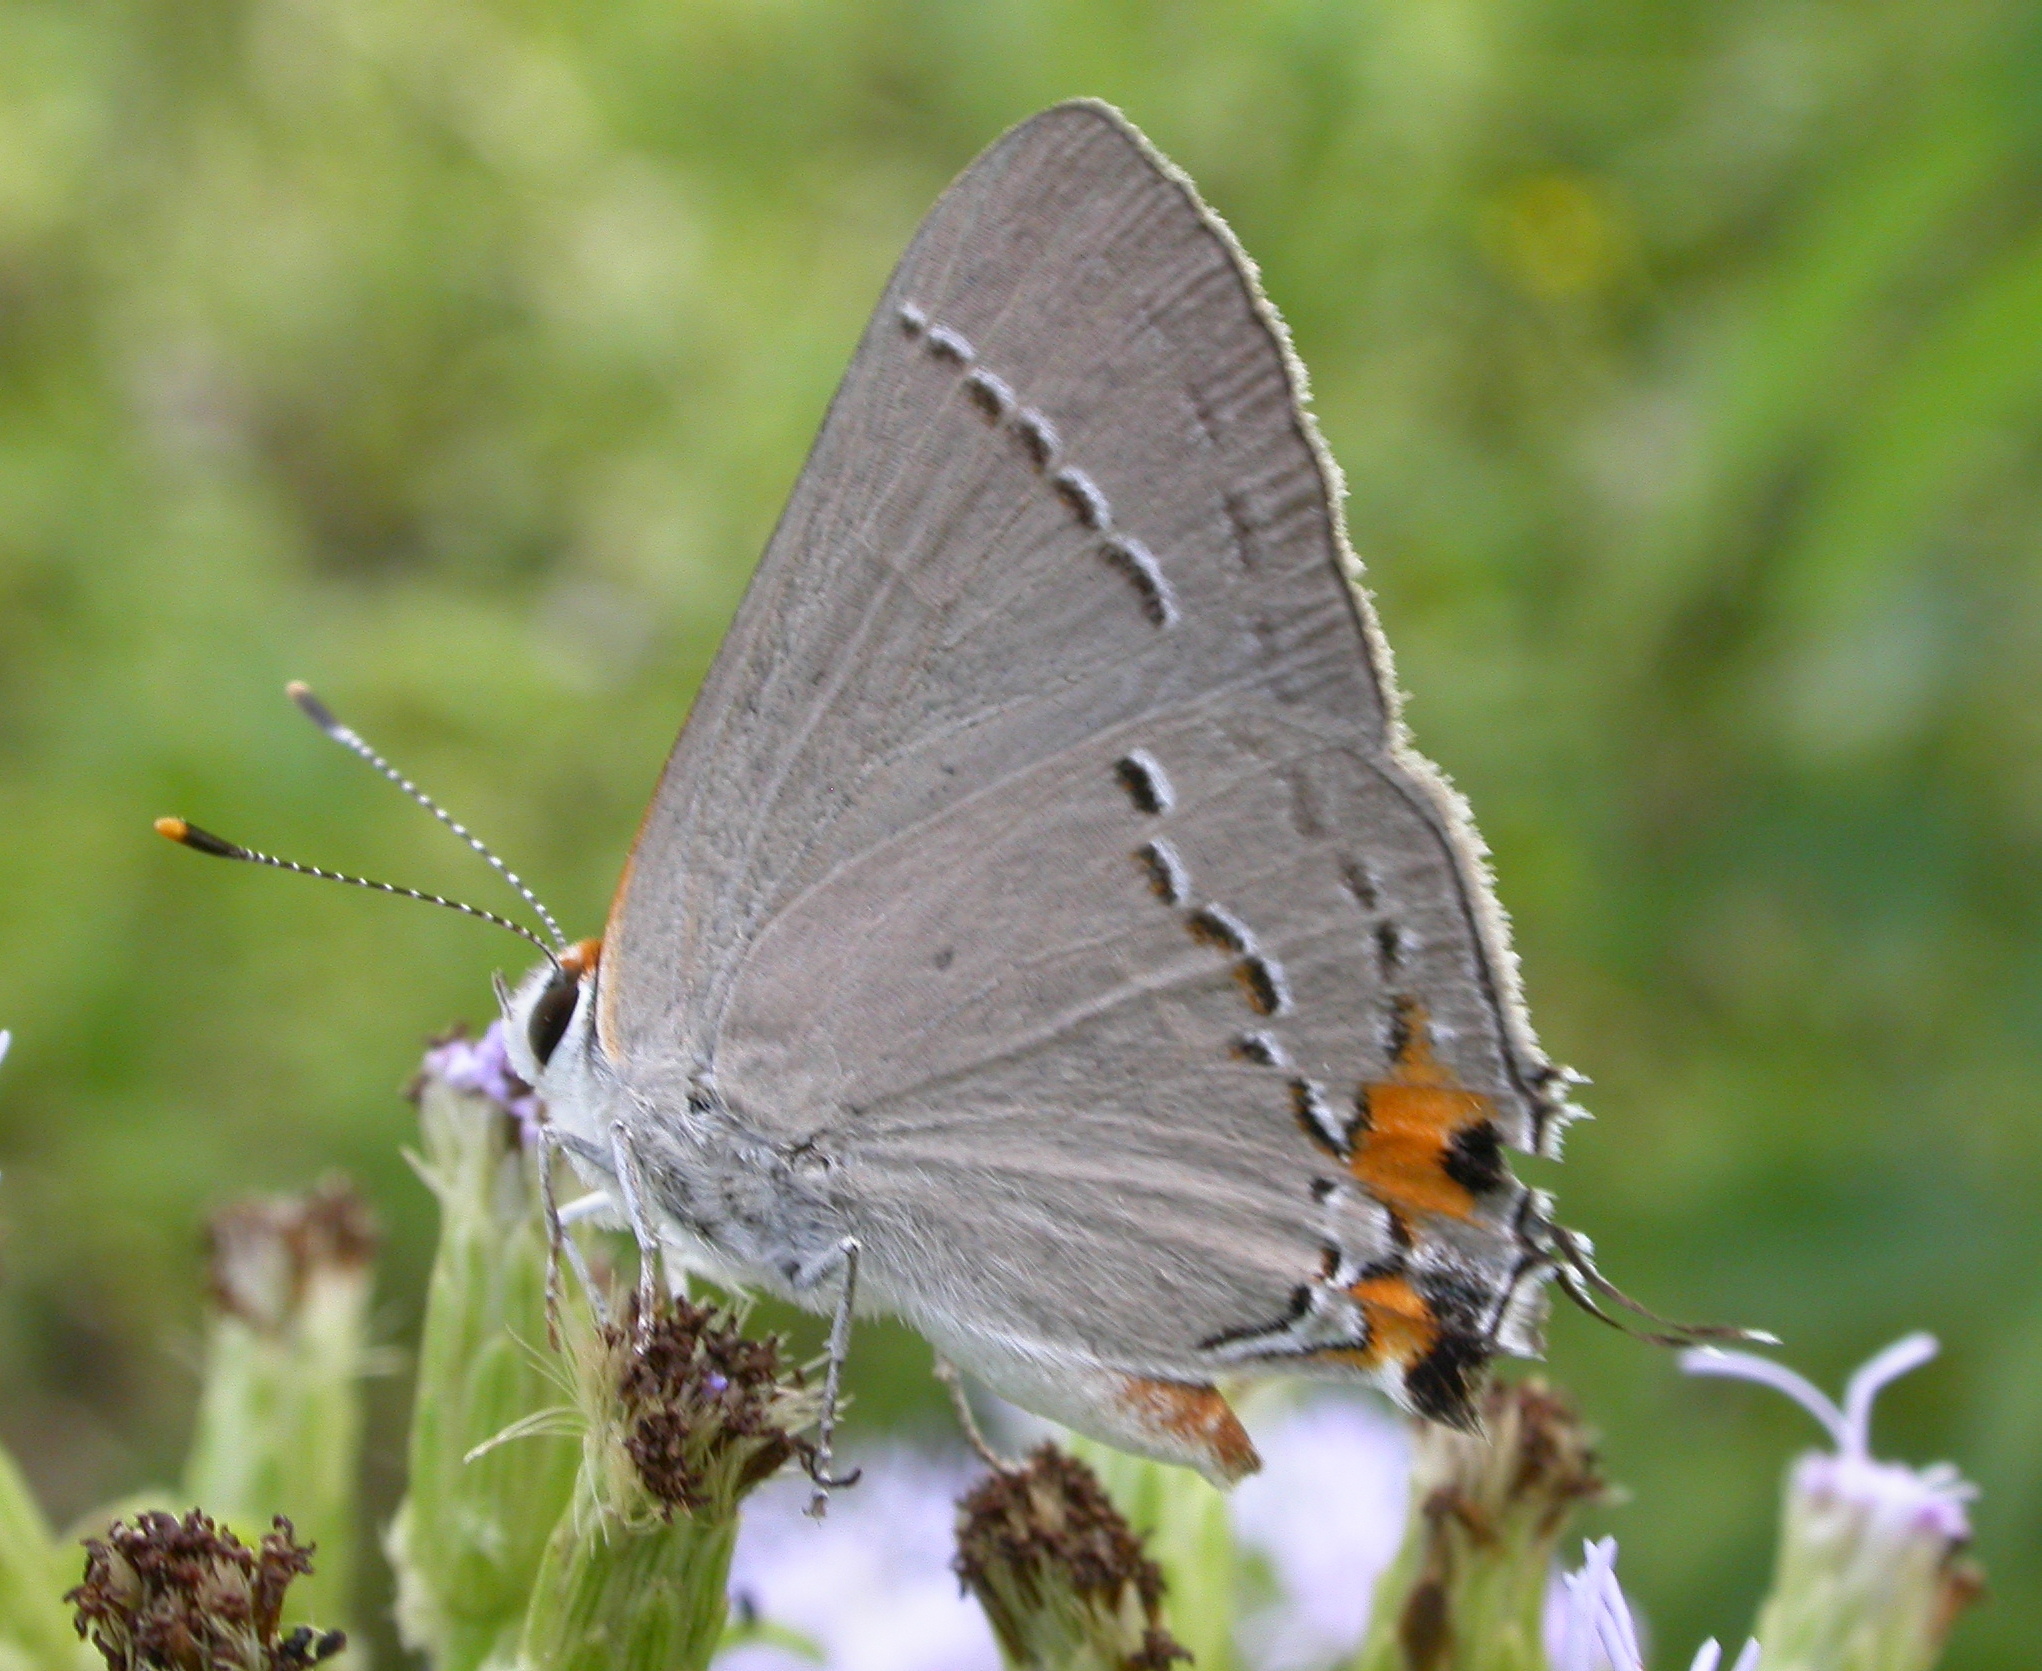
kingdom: Animalia
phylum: Arthropoda
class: Insecta
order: Lepidoptera
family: Lycaenidae
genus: Strymon
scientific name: Strymon melinus
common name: Gray hairstreak
